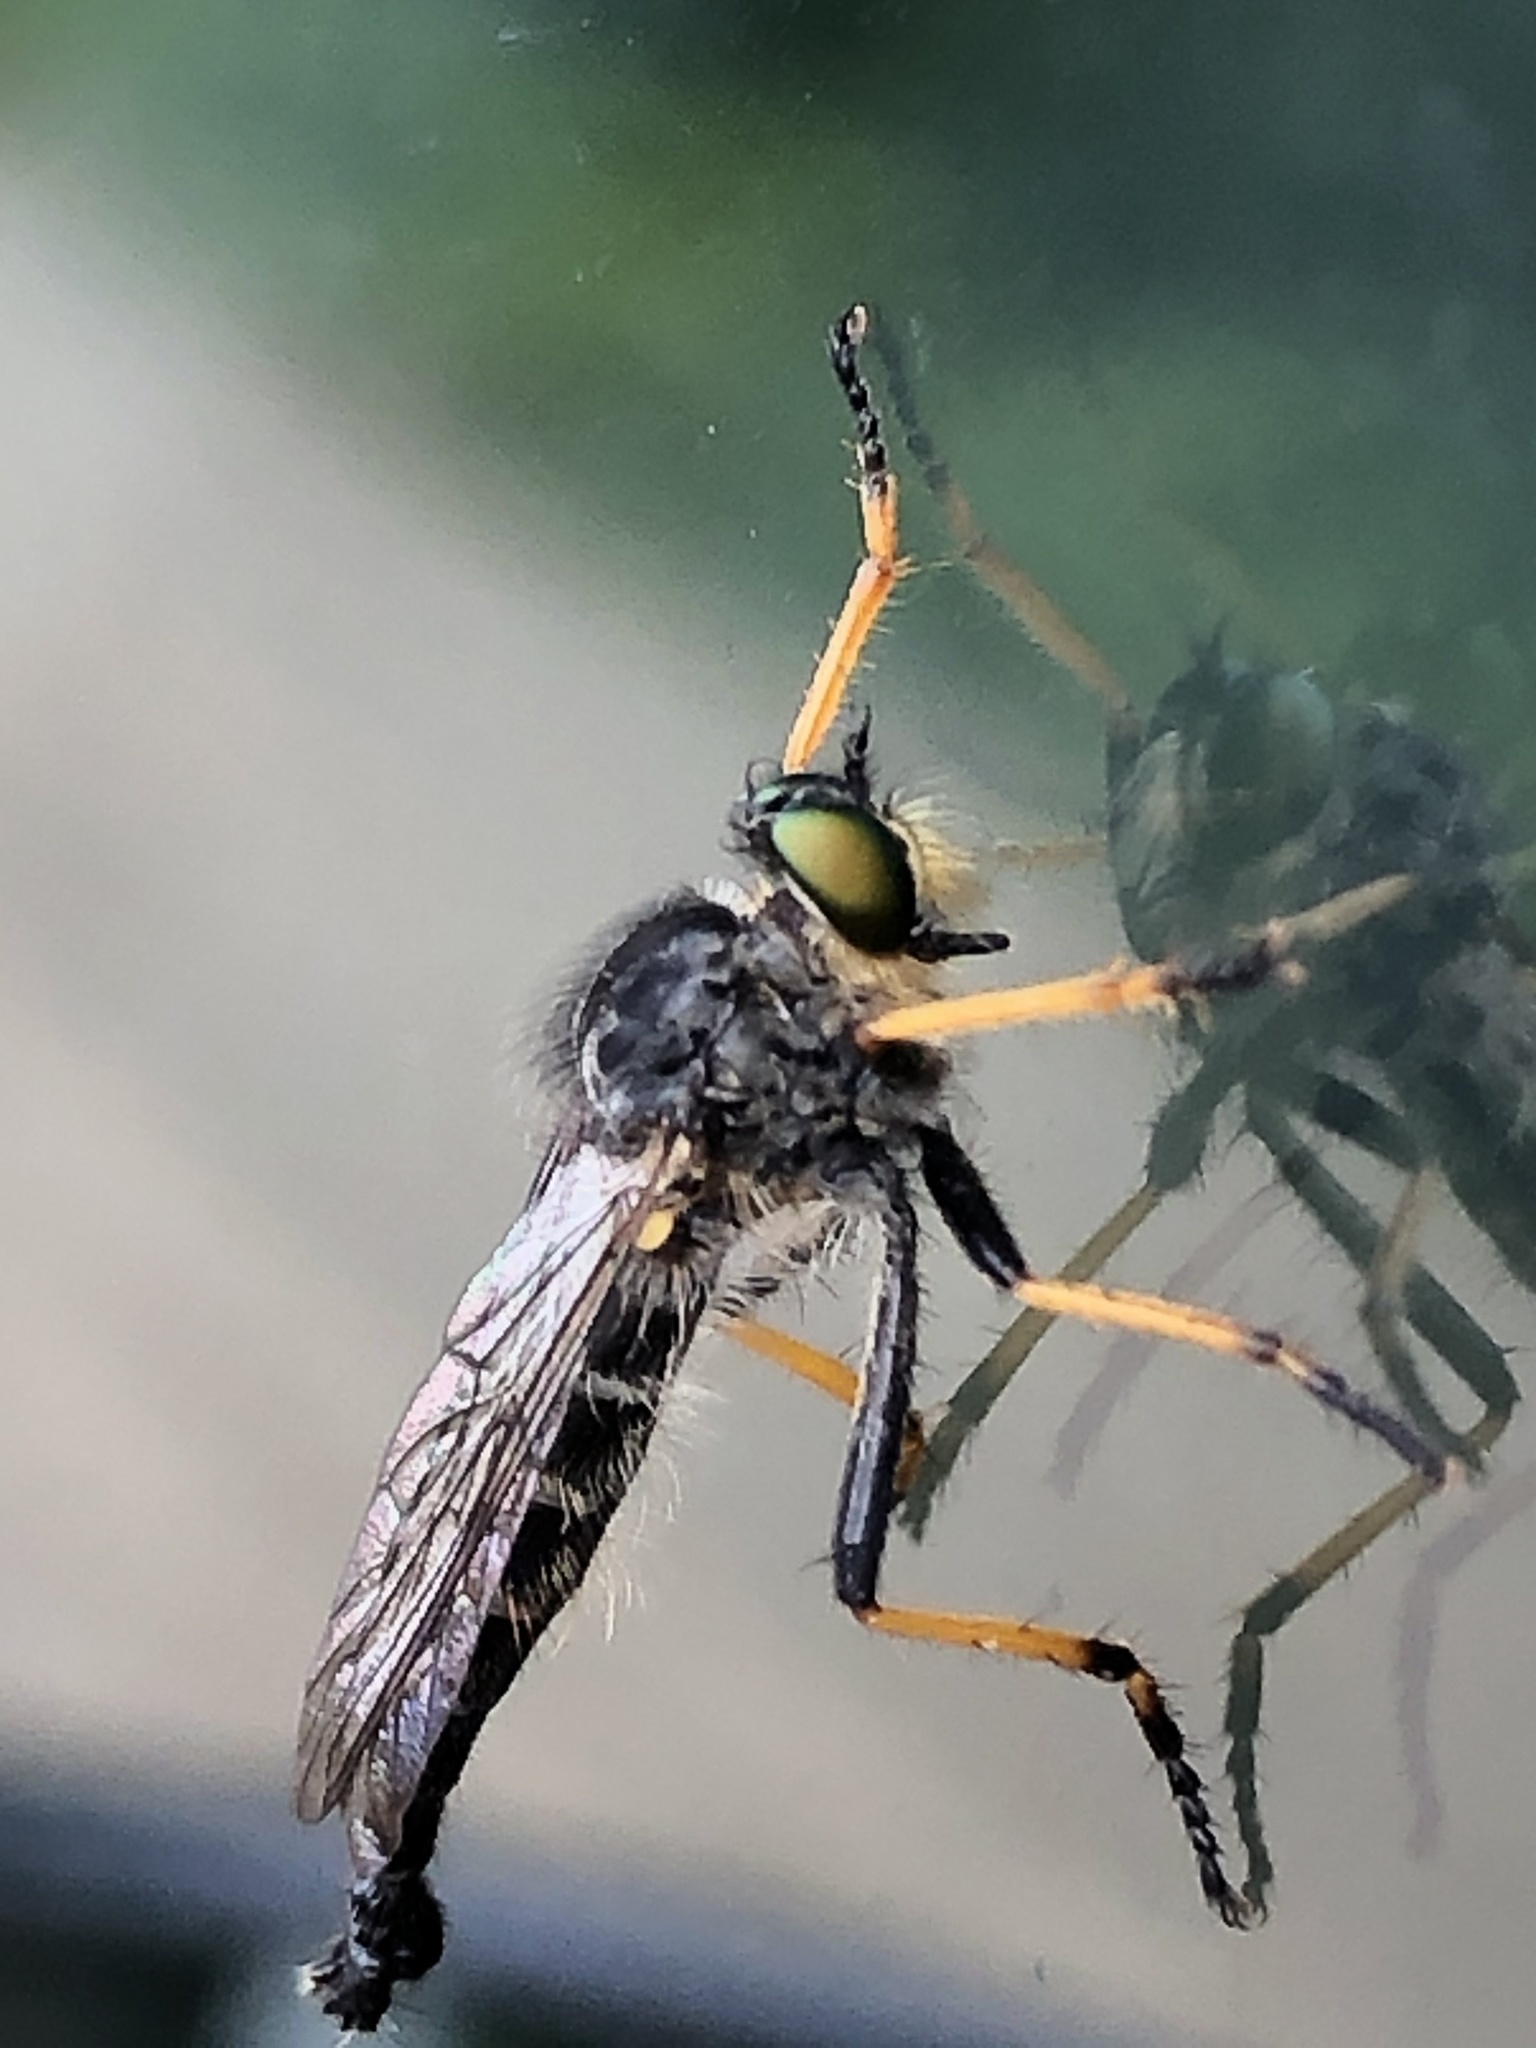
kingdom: Animalia
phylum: Arthropoda
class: Insecta
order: Diptera
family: Asilidae
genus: Neoitamus
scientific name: Neoitamus orphne
